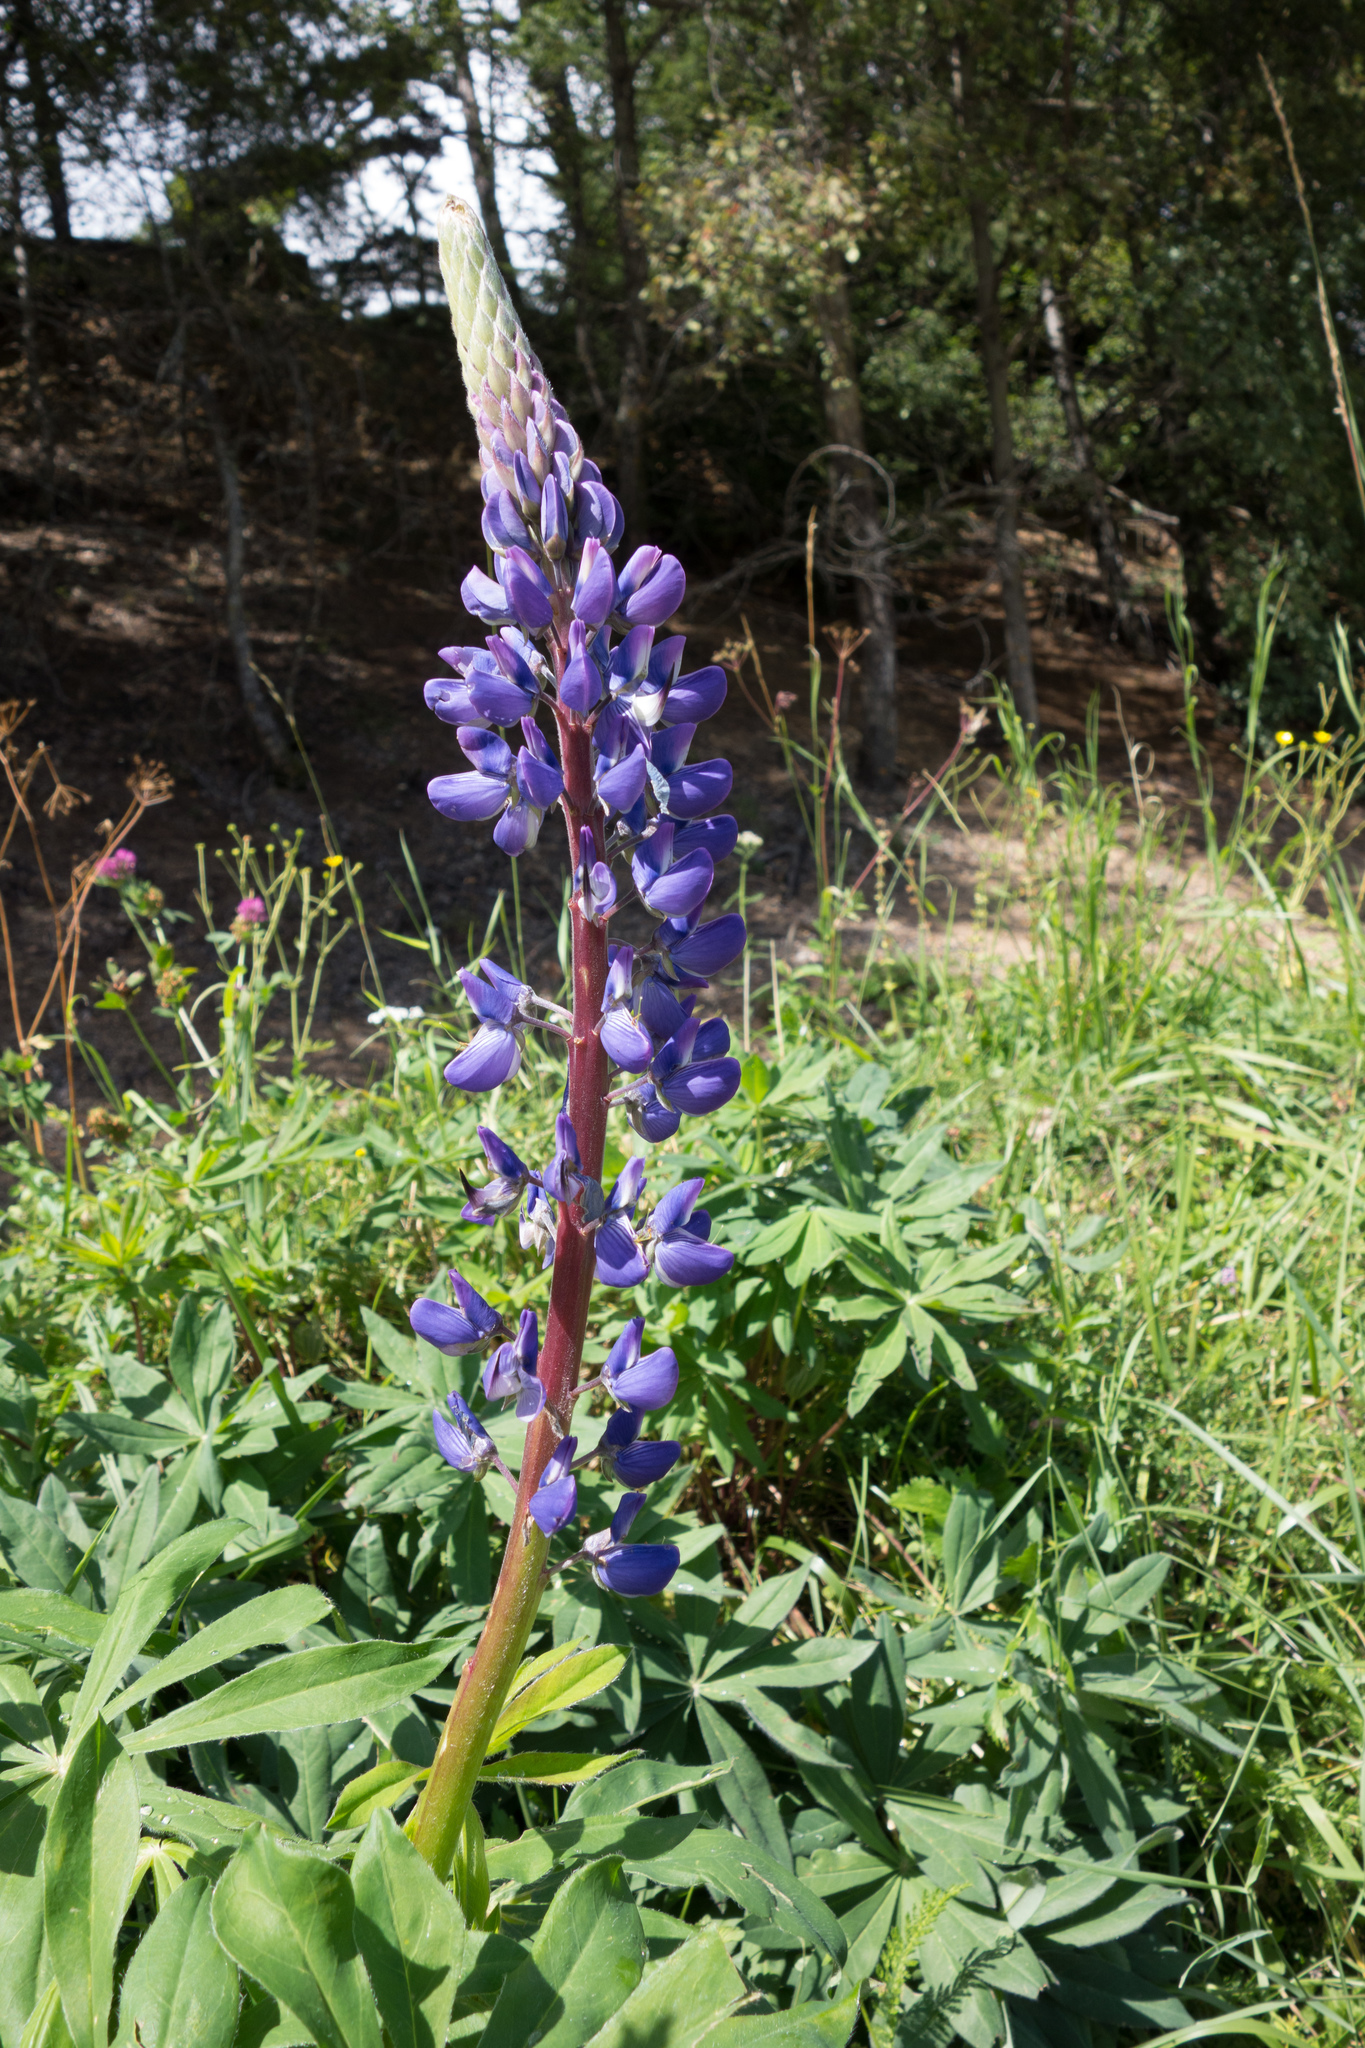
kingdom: Plantae
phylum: Tracheophyta
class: Magnoliopsida
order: Fabales
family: Fabaceae
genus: Lupinus
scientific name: Lupinus polyphyllus
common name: Garden lupin
